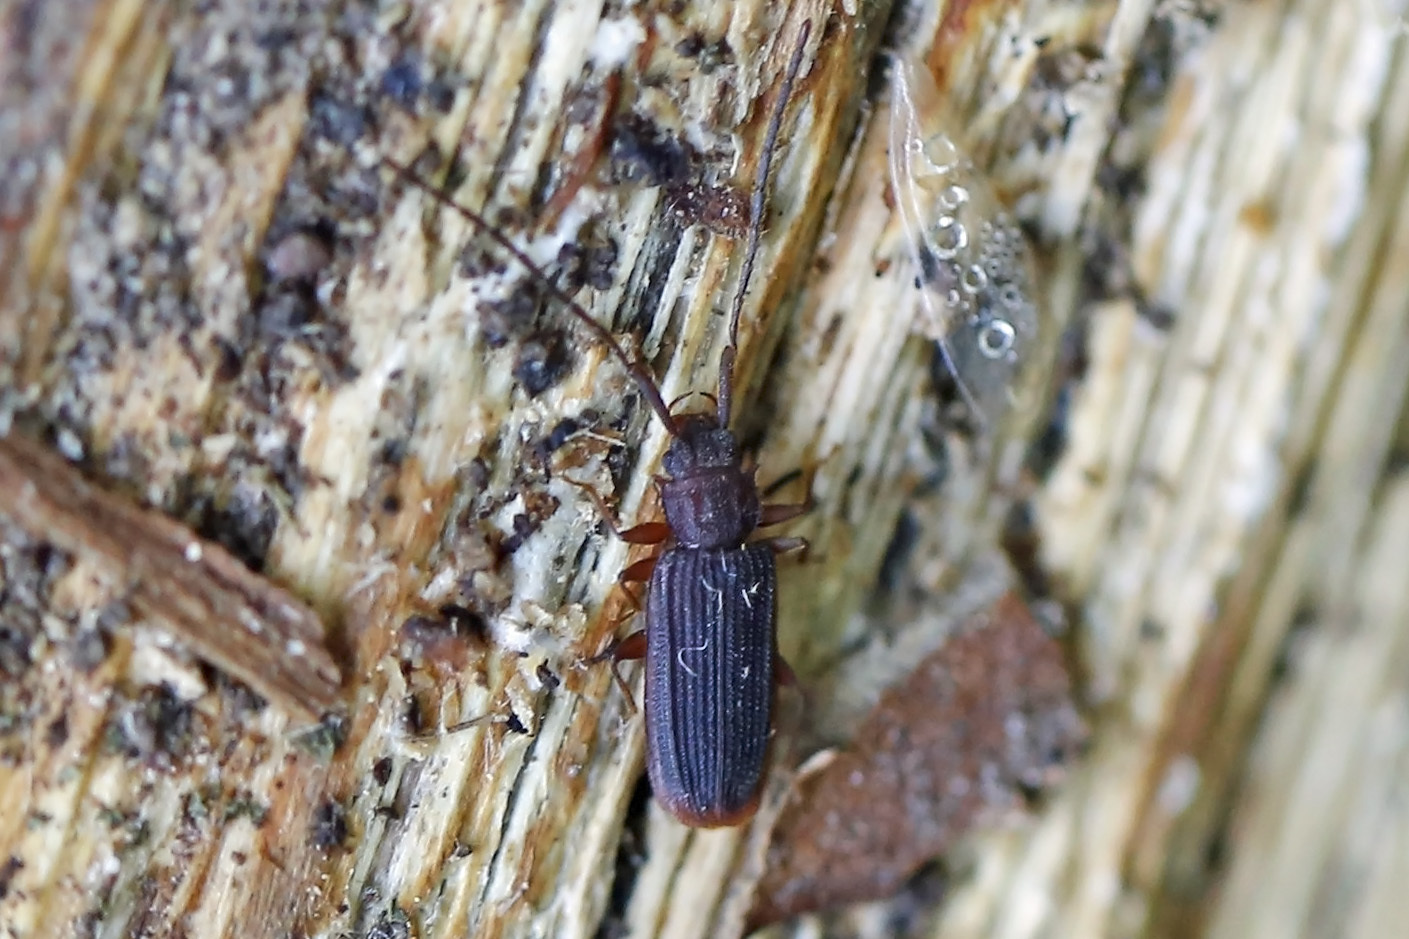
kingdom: Animalia
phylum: Arthropoda
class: Insecta
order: Coleoptera
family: Silvanidae
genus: Uleiota
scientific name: Uleiota dubia
